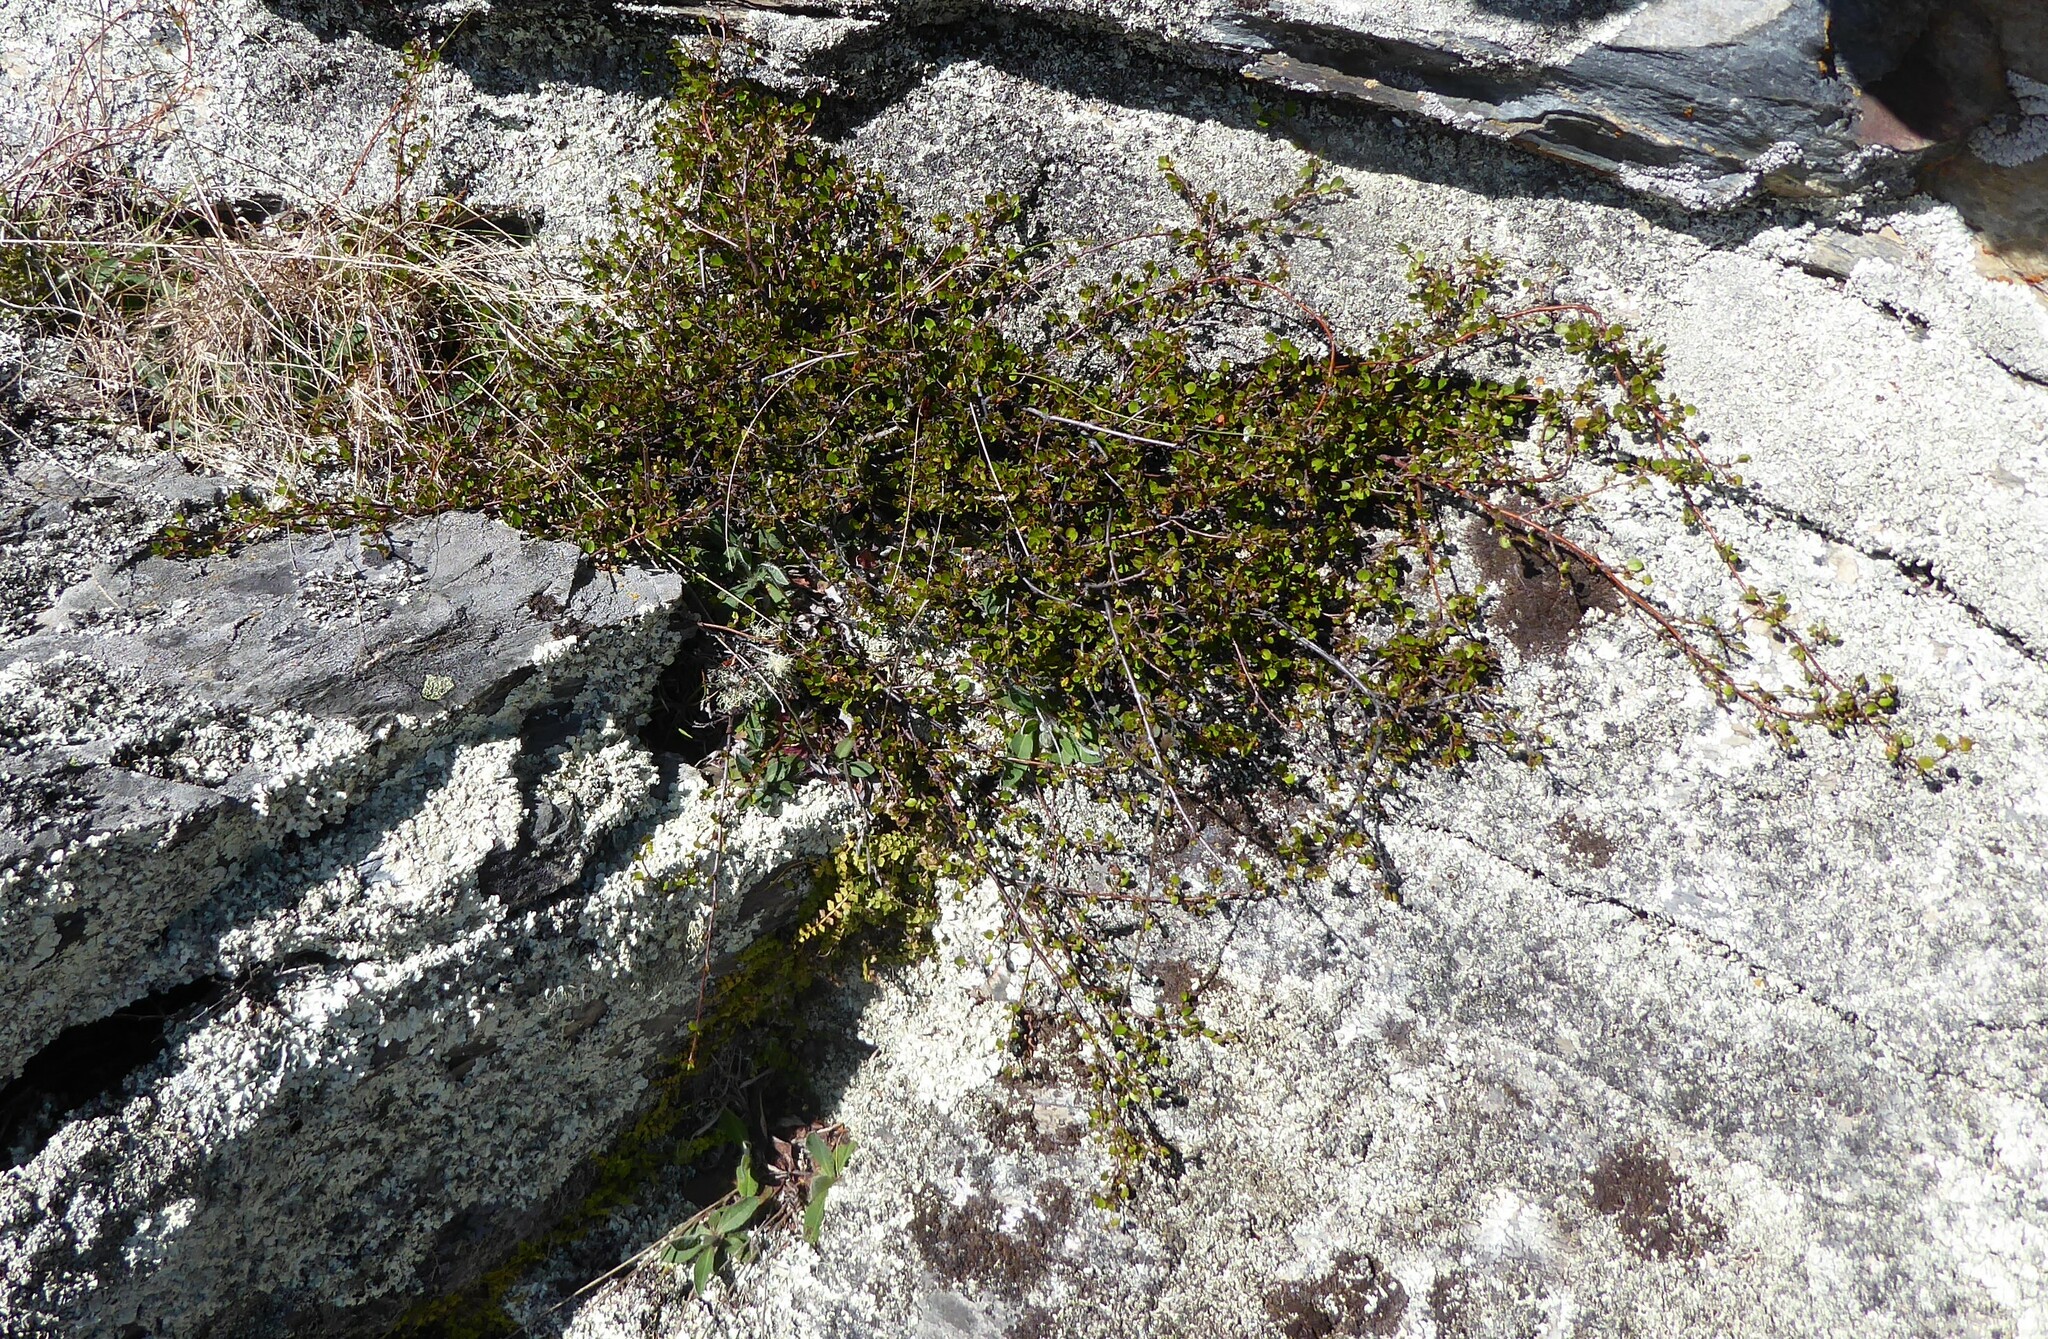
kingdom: Plantae
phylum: Tracheophyta
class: Magnoliopsida
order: Caryophyllales
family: Polygonaceae
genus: Muehlenbeckia
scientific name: Muehlenbeckia complexa
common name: Wireplant
